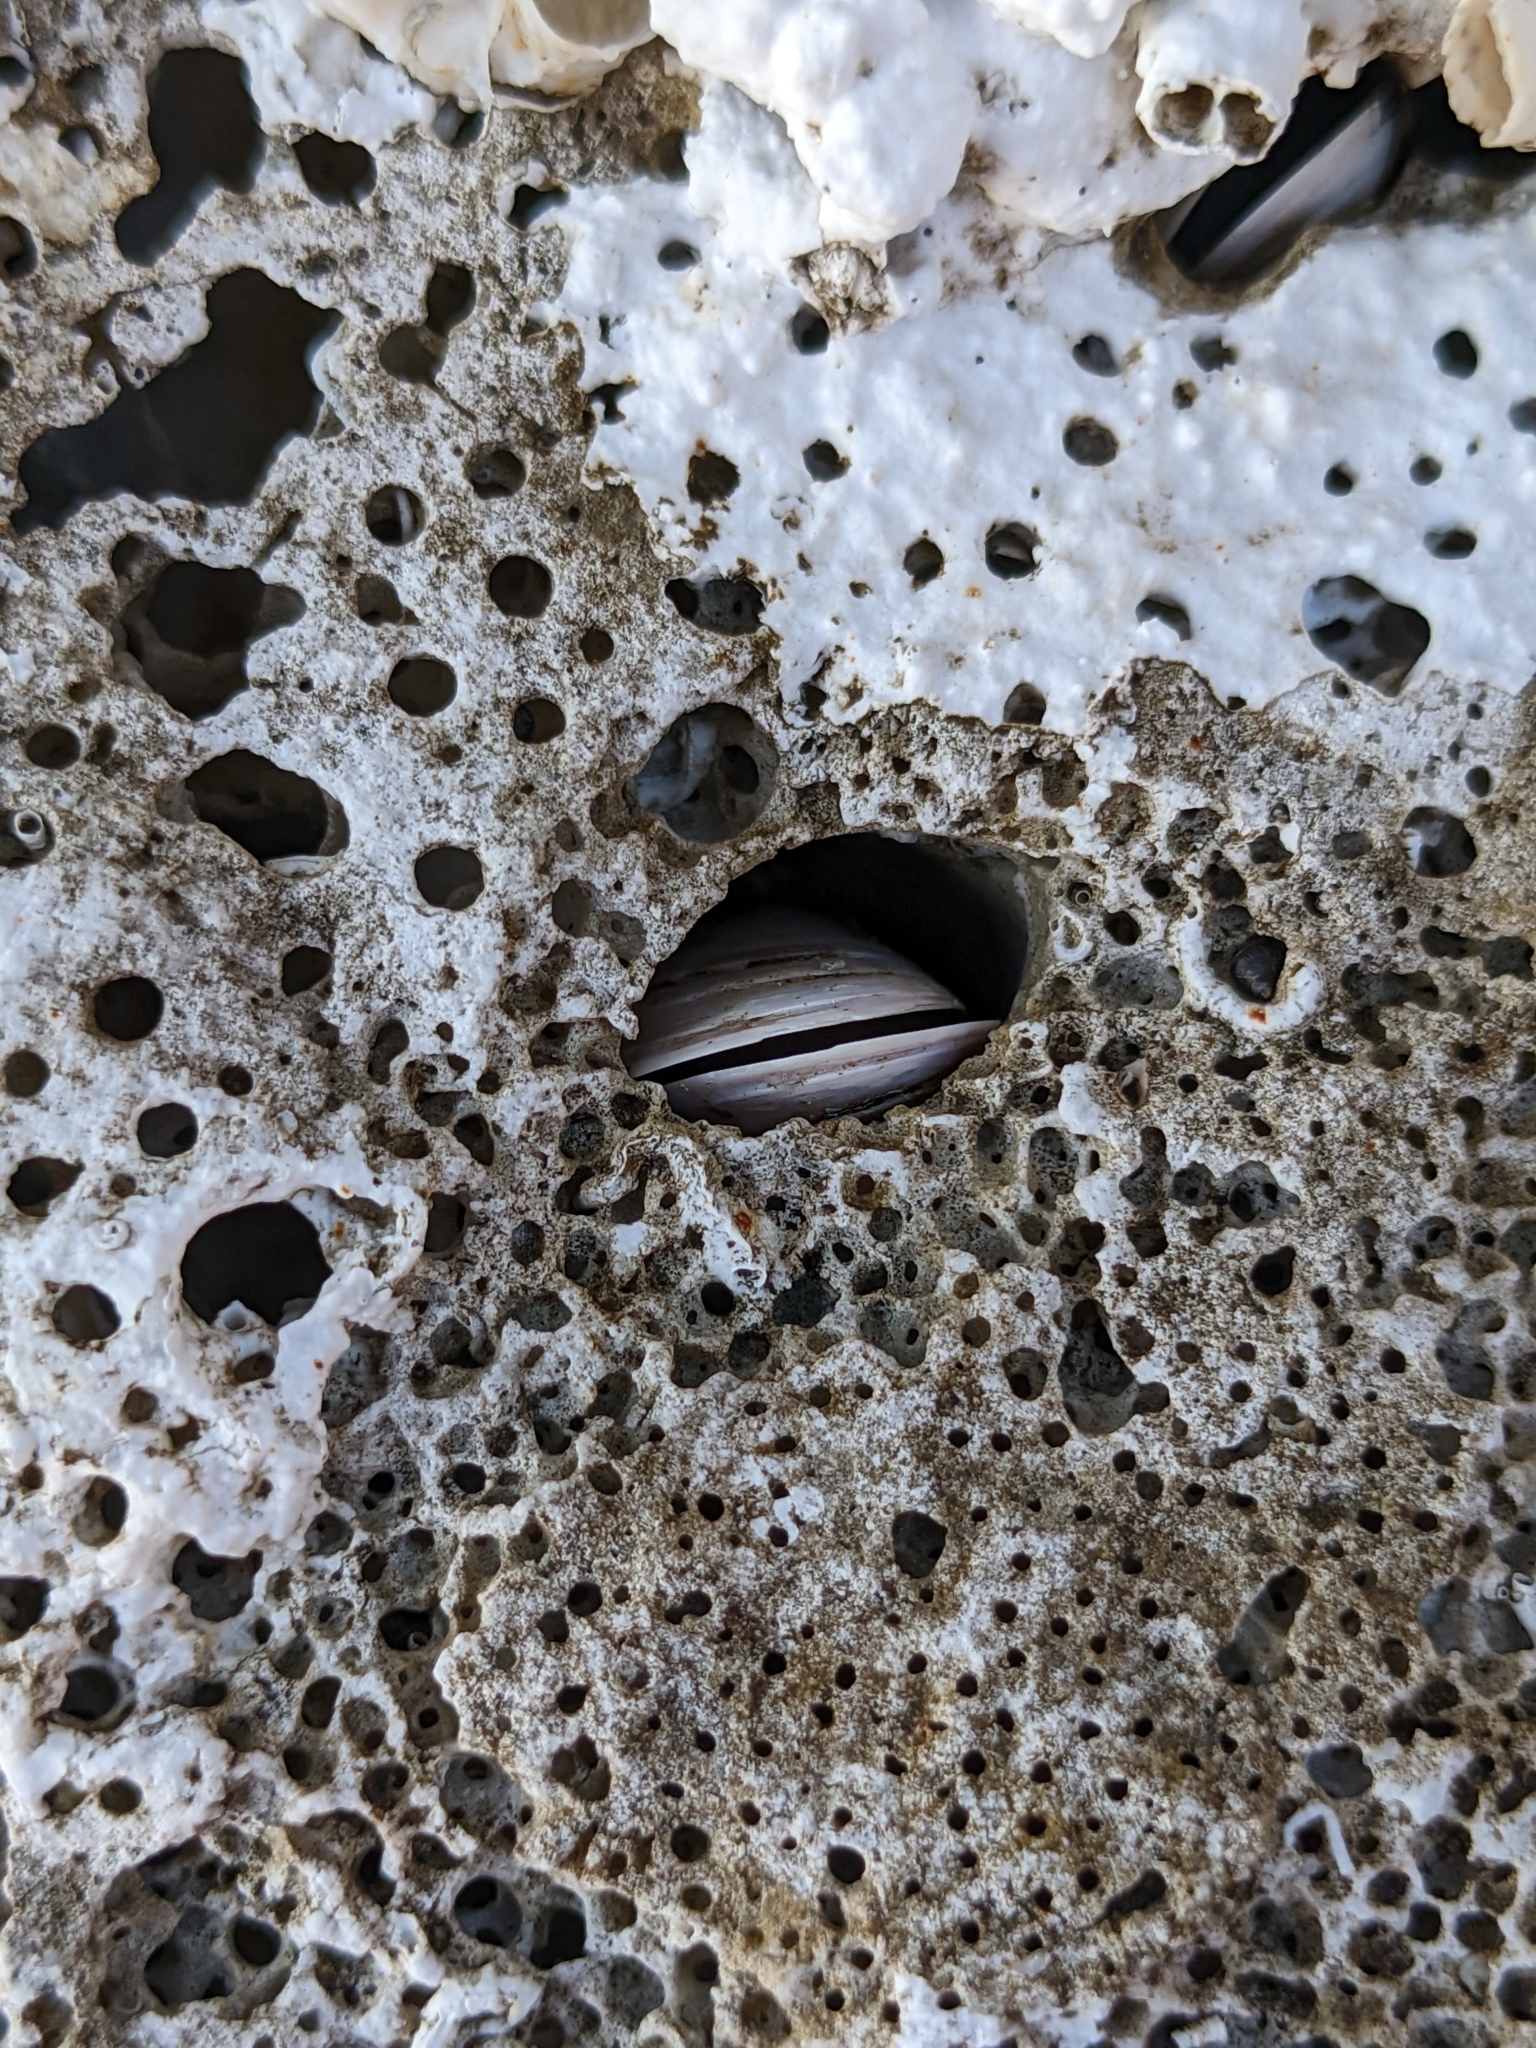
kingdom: Animalia
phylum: Mollusca
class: Bivalvia
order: Mytilida
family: Mytilidae
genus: Lithophaga
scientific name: Lithophaga lithophaga
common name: European date mussel
